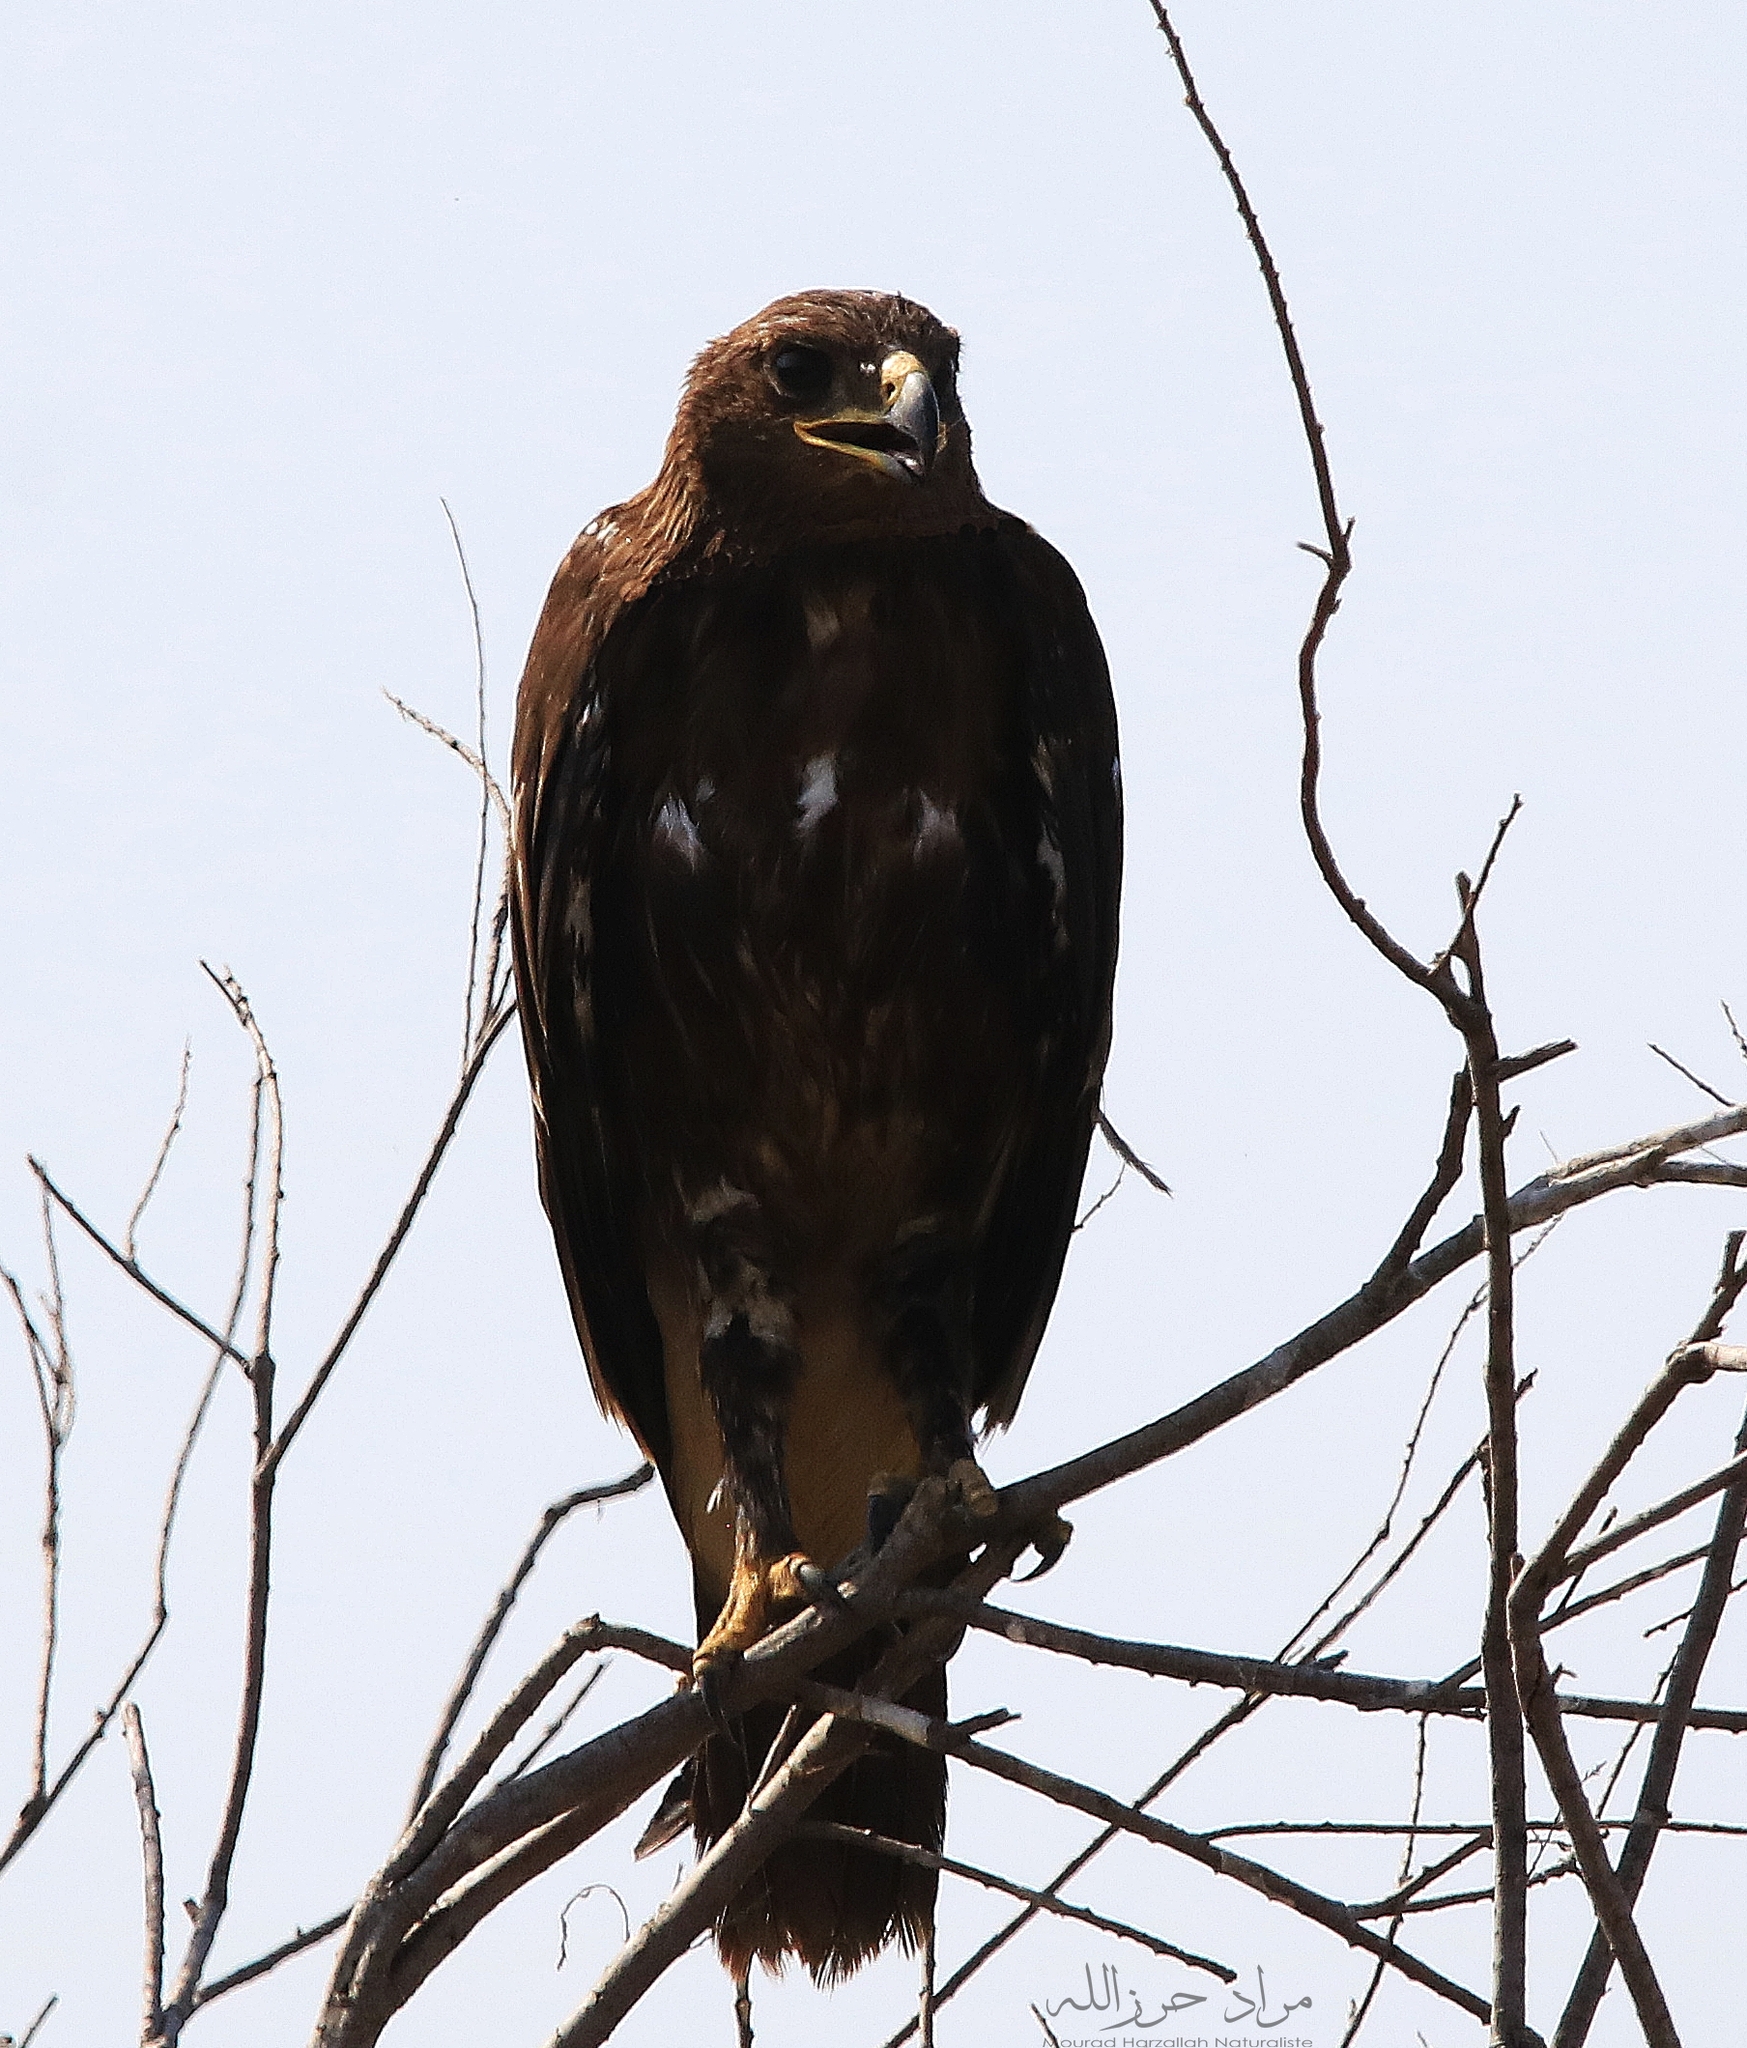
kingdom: Animalia
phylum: Chordata
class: Aves
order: Accipitriformes
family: Accipitridae
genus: Aquila
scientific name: Aquila clanga
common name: Greater spotted eagle
